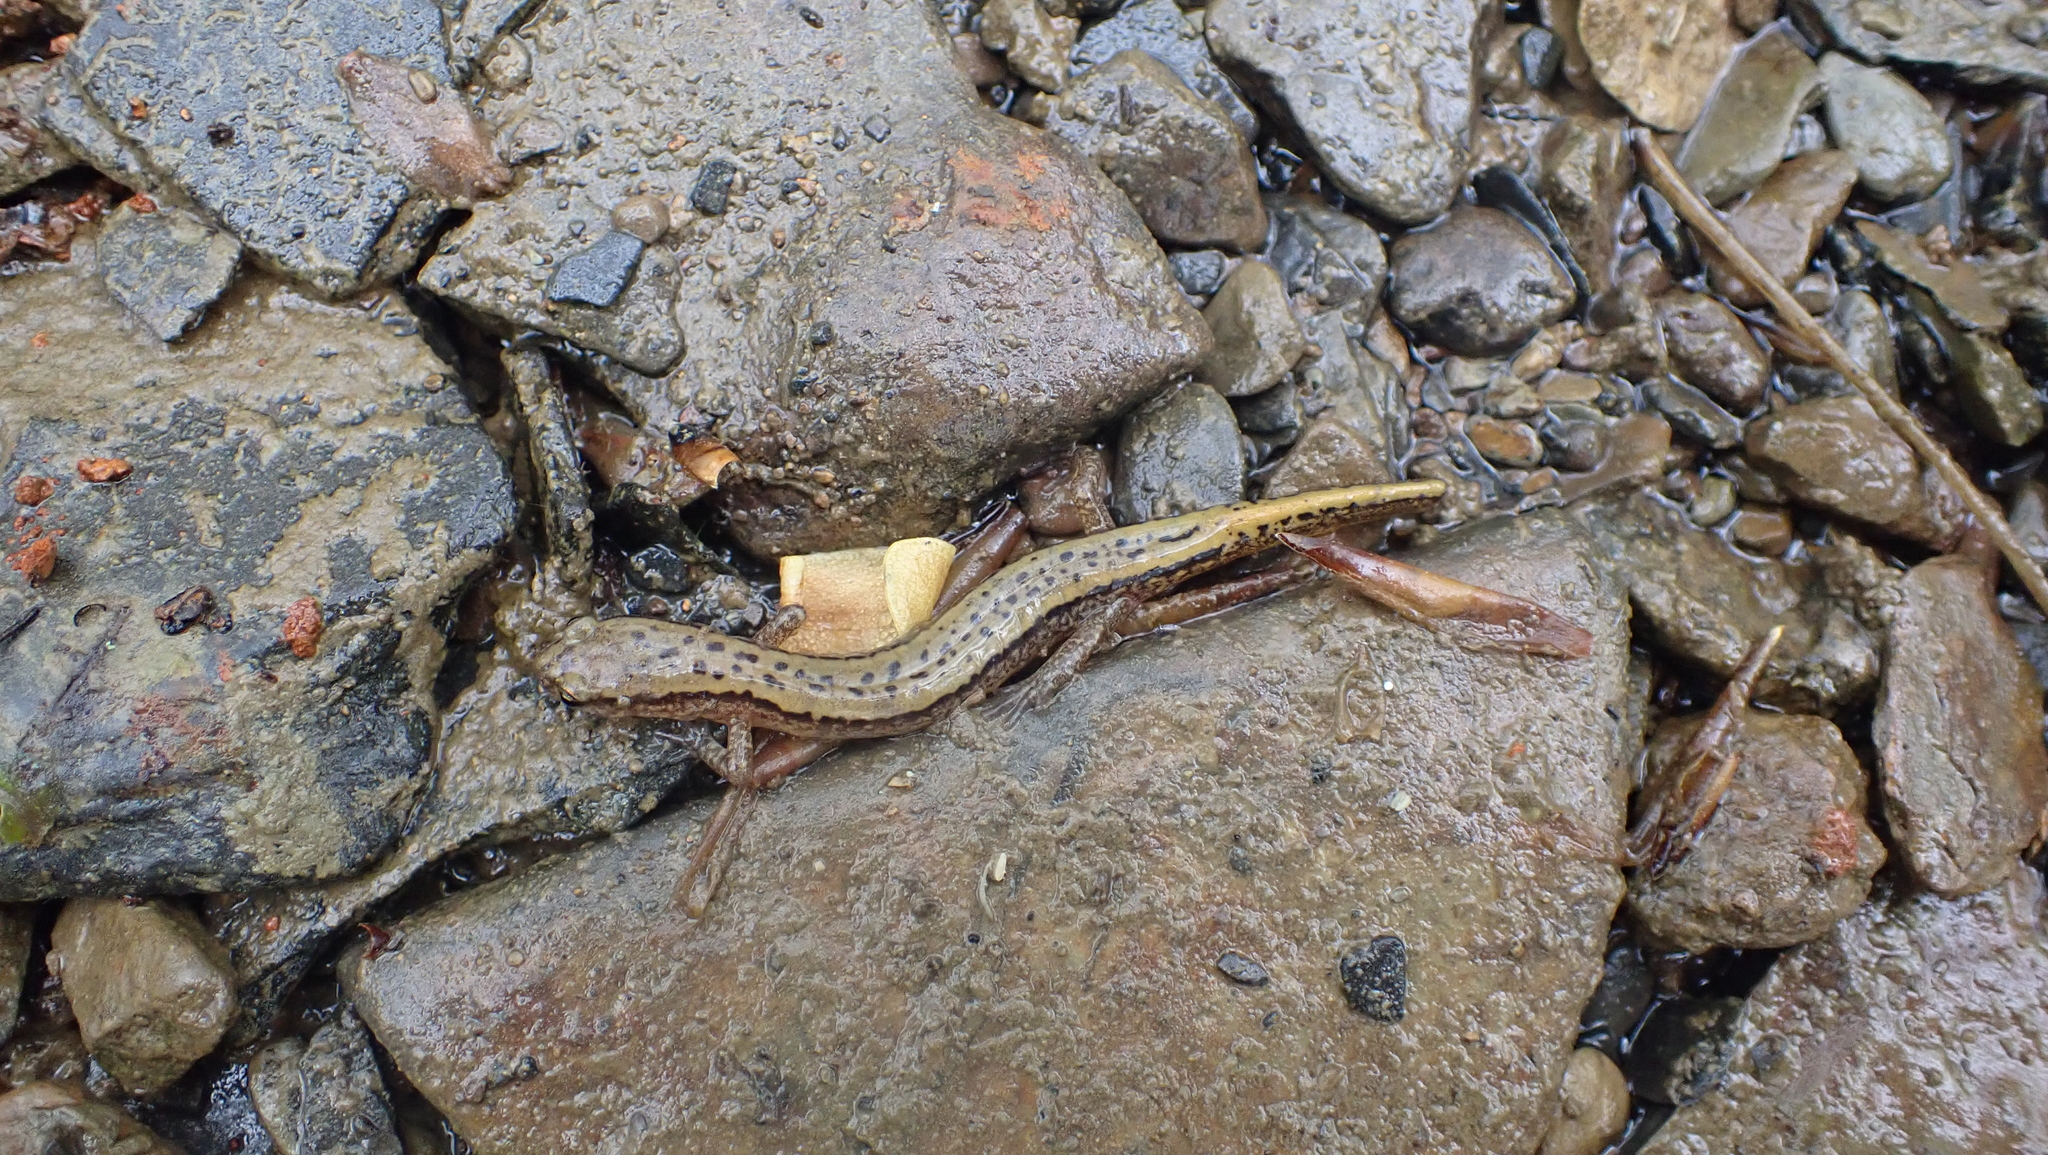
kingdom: Animalia
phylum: Chordata
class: Amphibia
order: Caudata
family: Plethodontidae
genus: Eurycea
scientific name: Eurycea cirrigera
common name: Southern two-lined salamander
